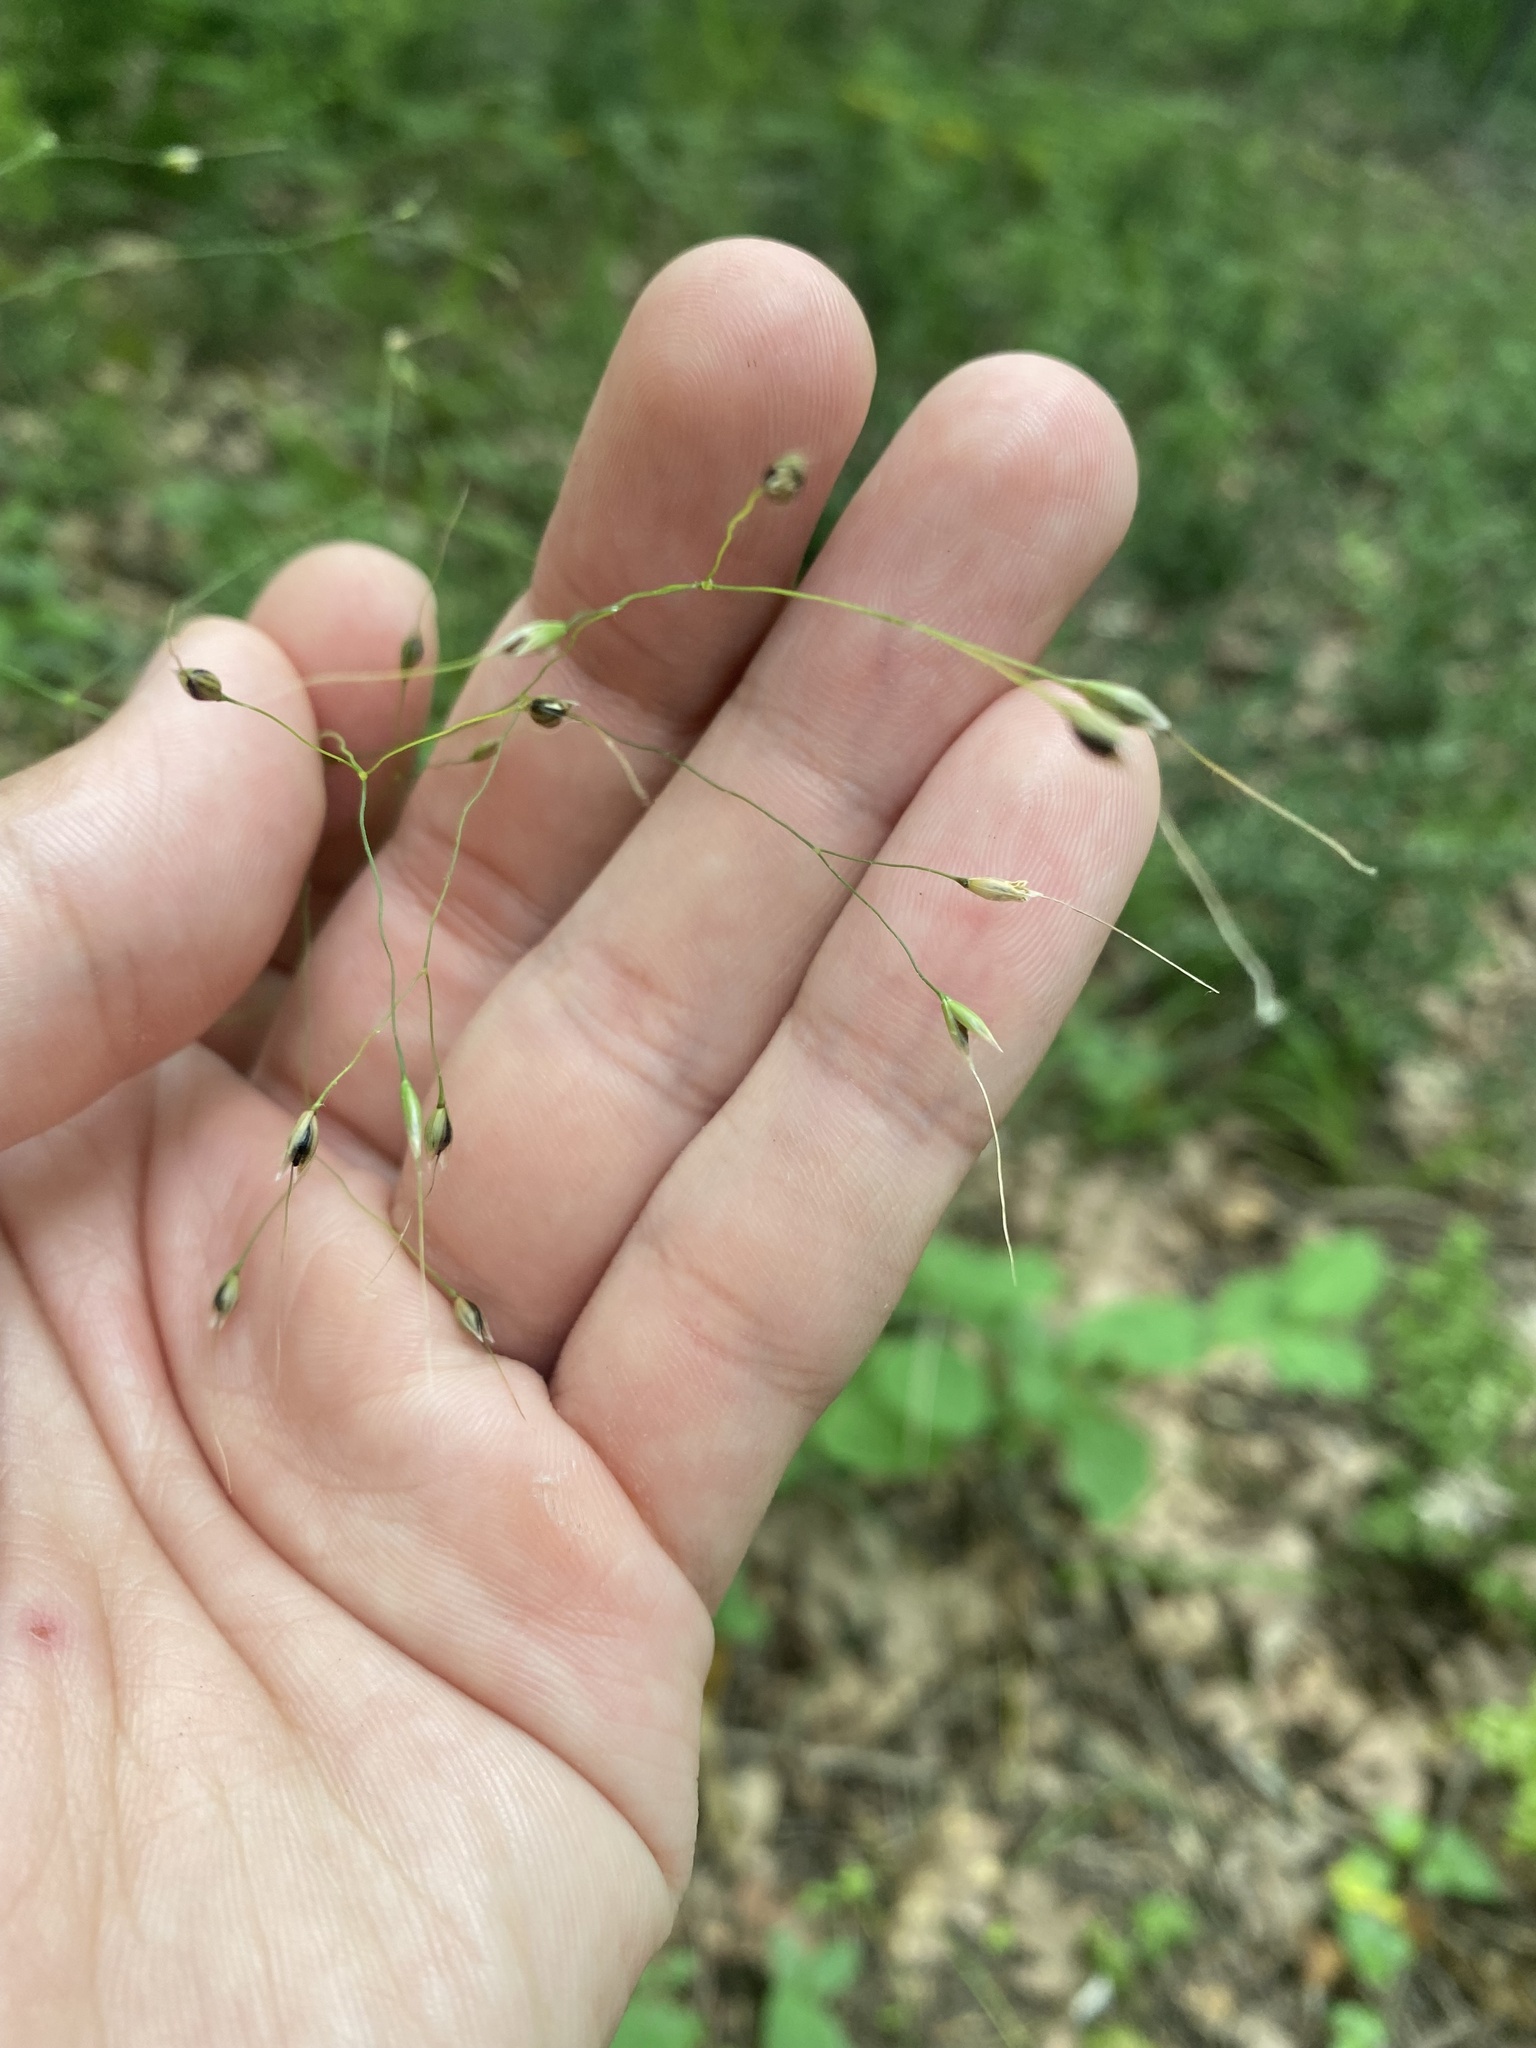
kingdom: Plantae
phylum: Tracheophyta
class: Liliopsida
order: Poales
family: Poaceae
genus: Achnatherum
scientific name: Achnatherum virescens
